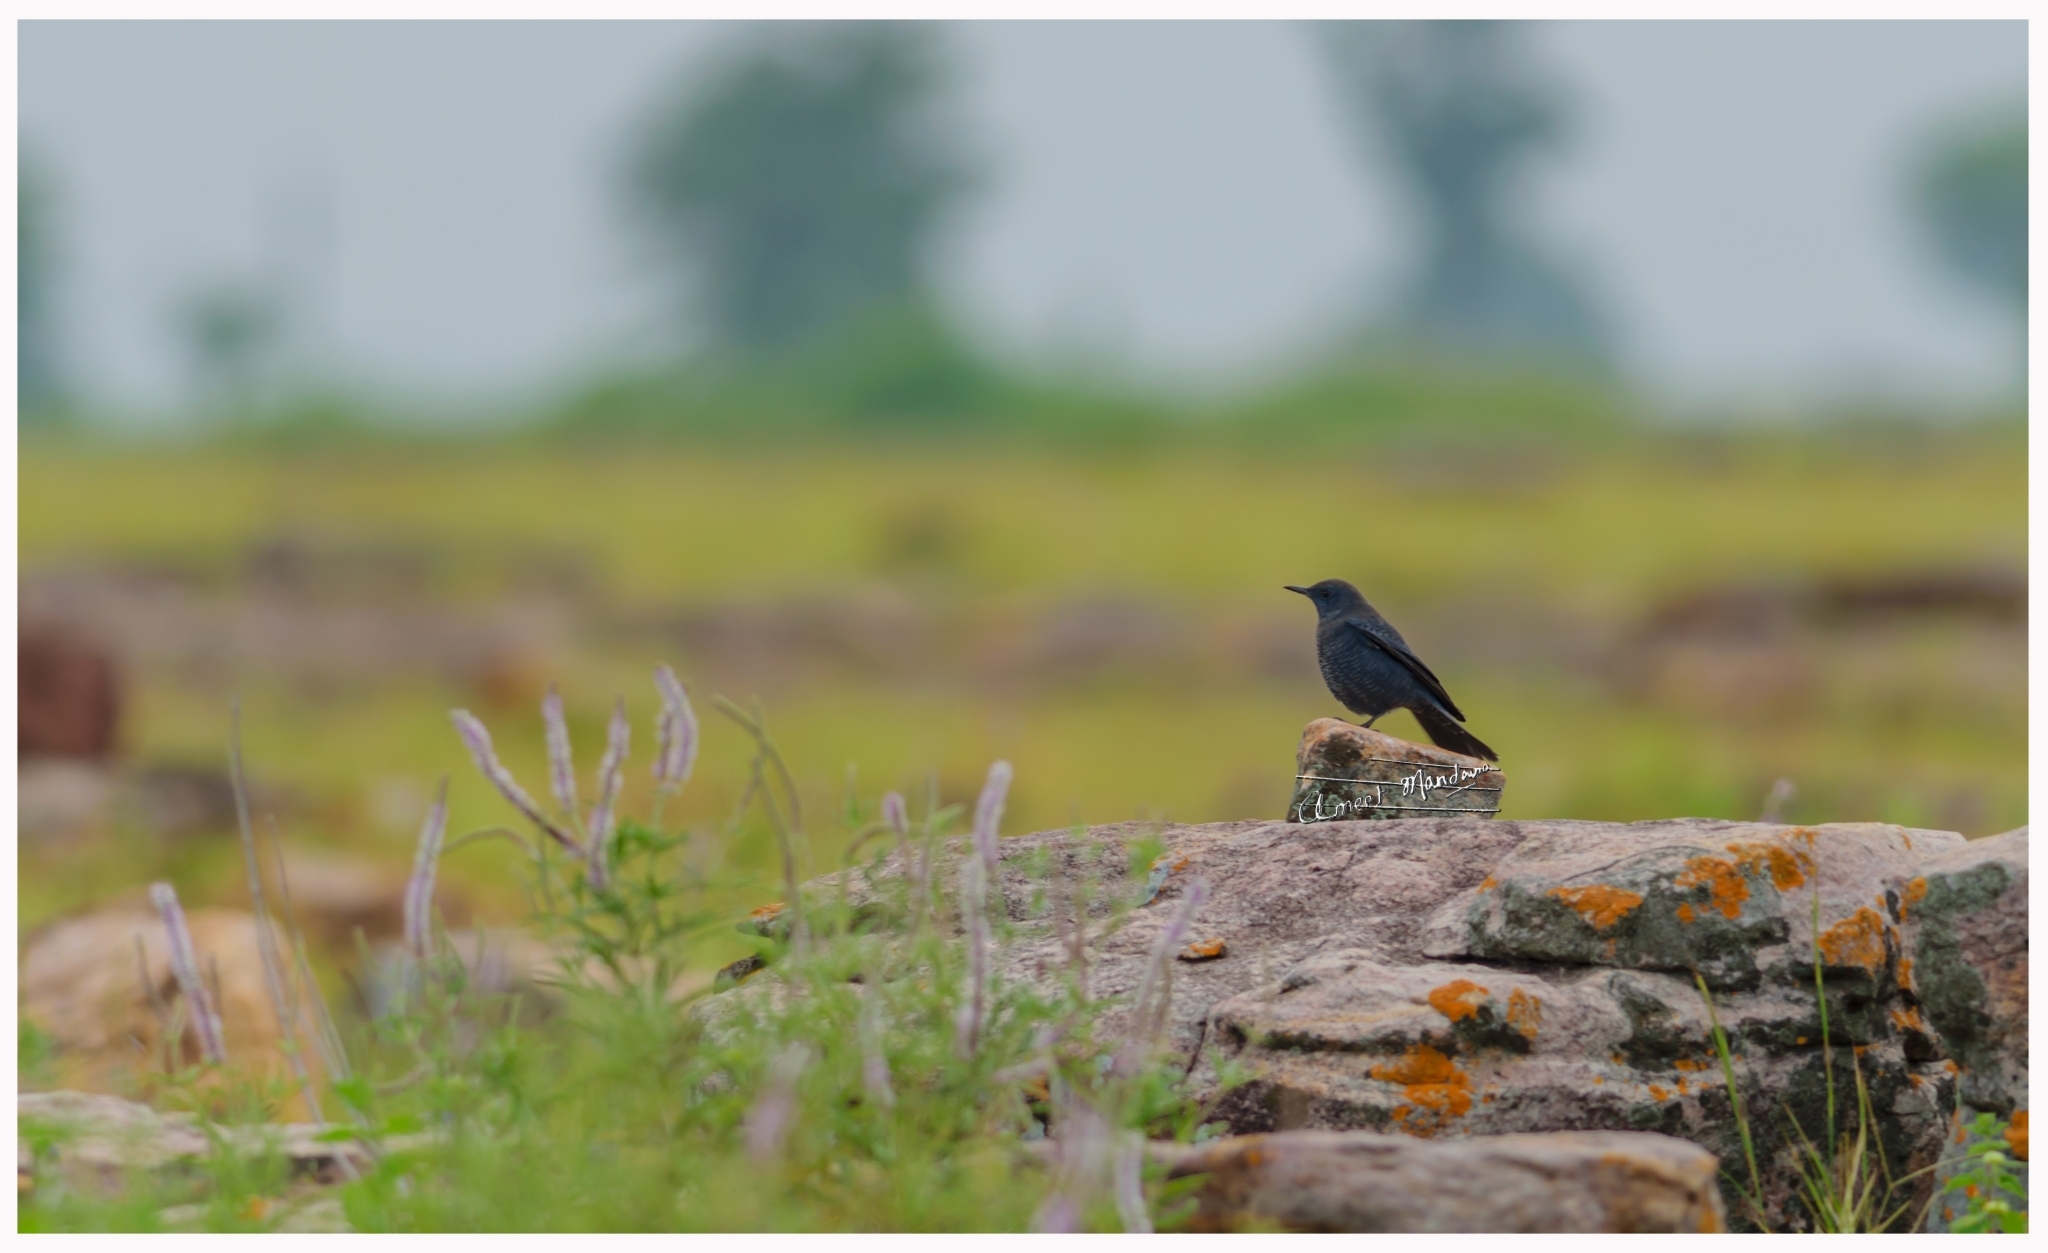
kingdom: Animalia
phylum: Chordata
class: Aves
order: Passeriformes
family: Muscicapidae
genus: Monticola
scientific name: Monticola solitarius
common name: Blue rock thrush
